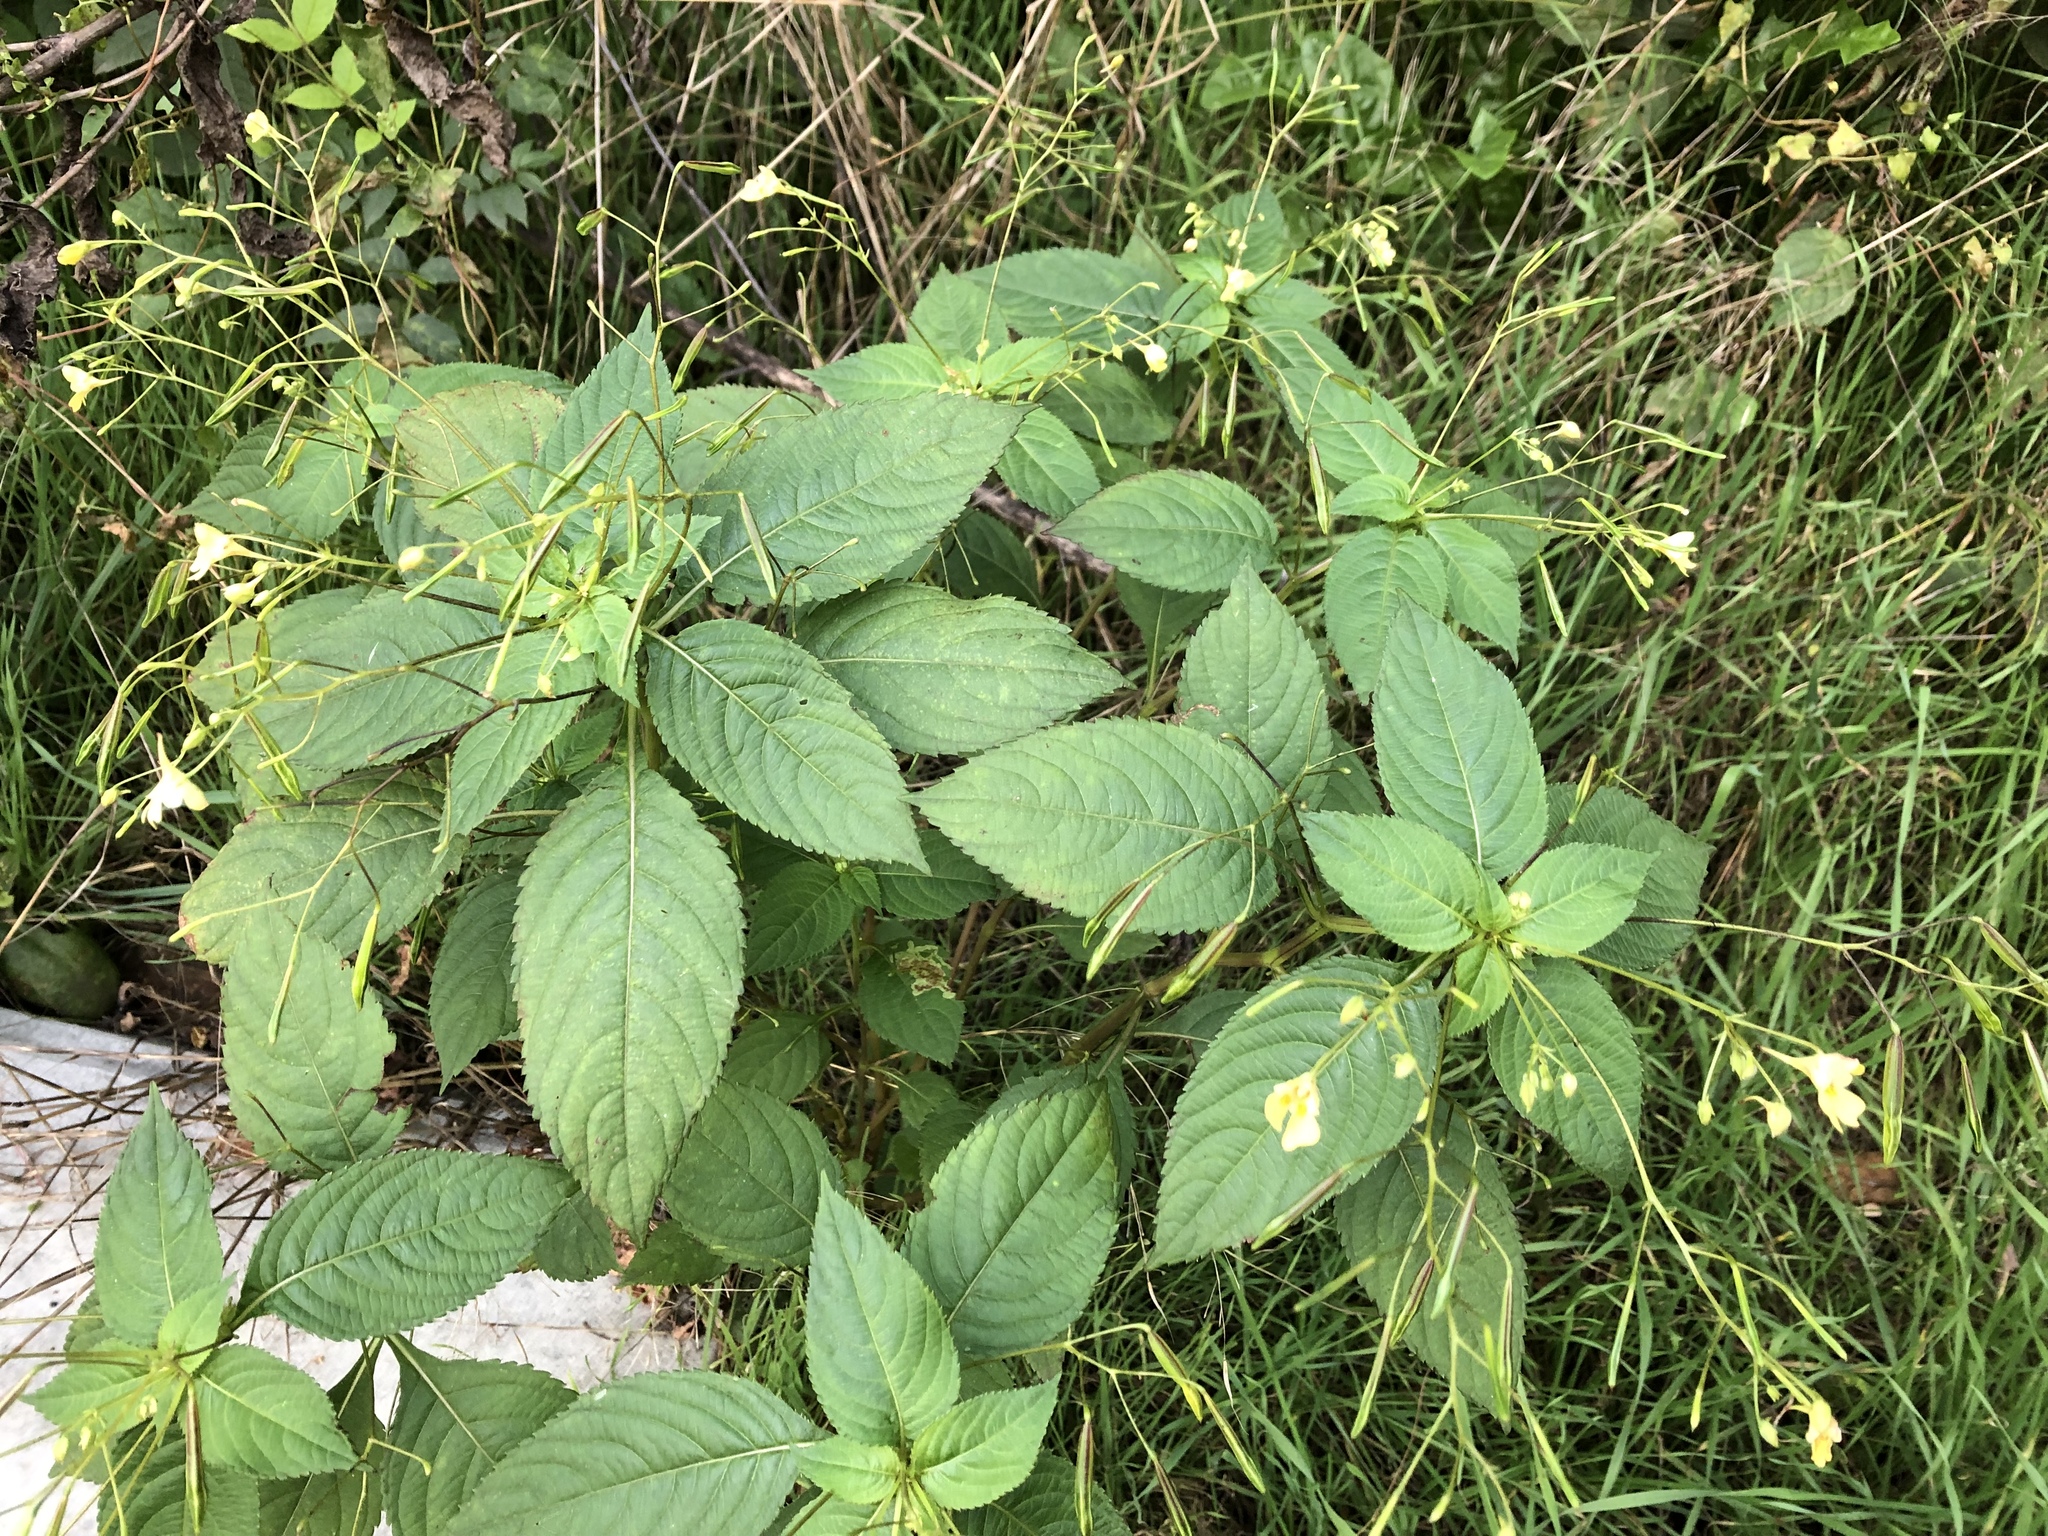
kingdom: Plantae
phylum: Tracheophyta
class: Magnoliopsida
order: Ericales
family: Balsaminaceae
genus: Impatiens
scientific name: Impatiens parviflora
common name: Small balsam
